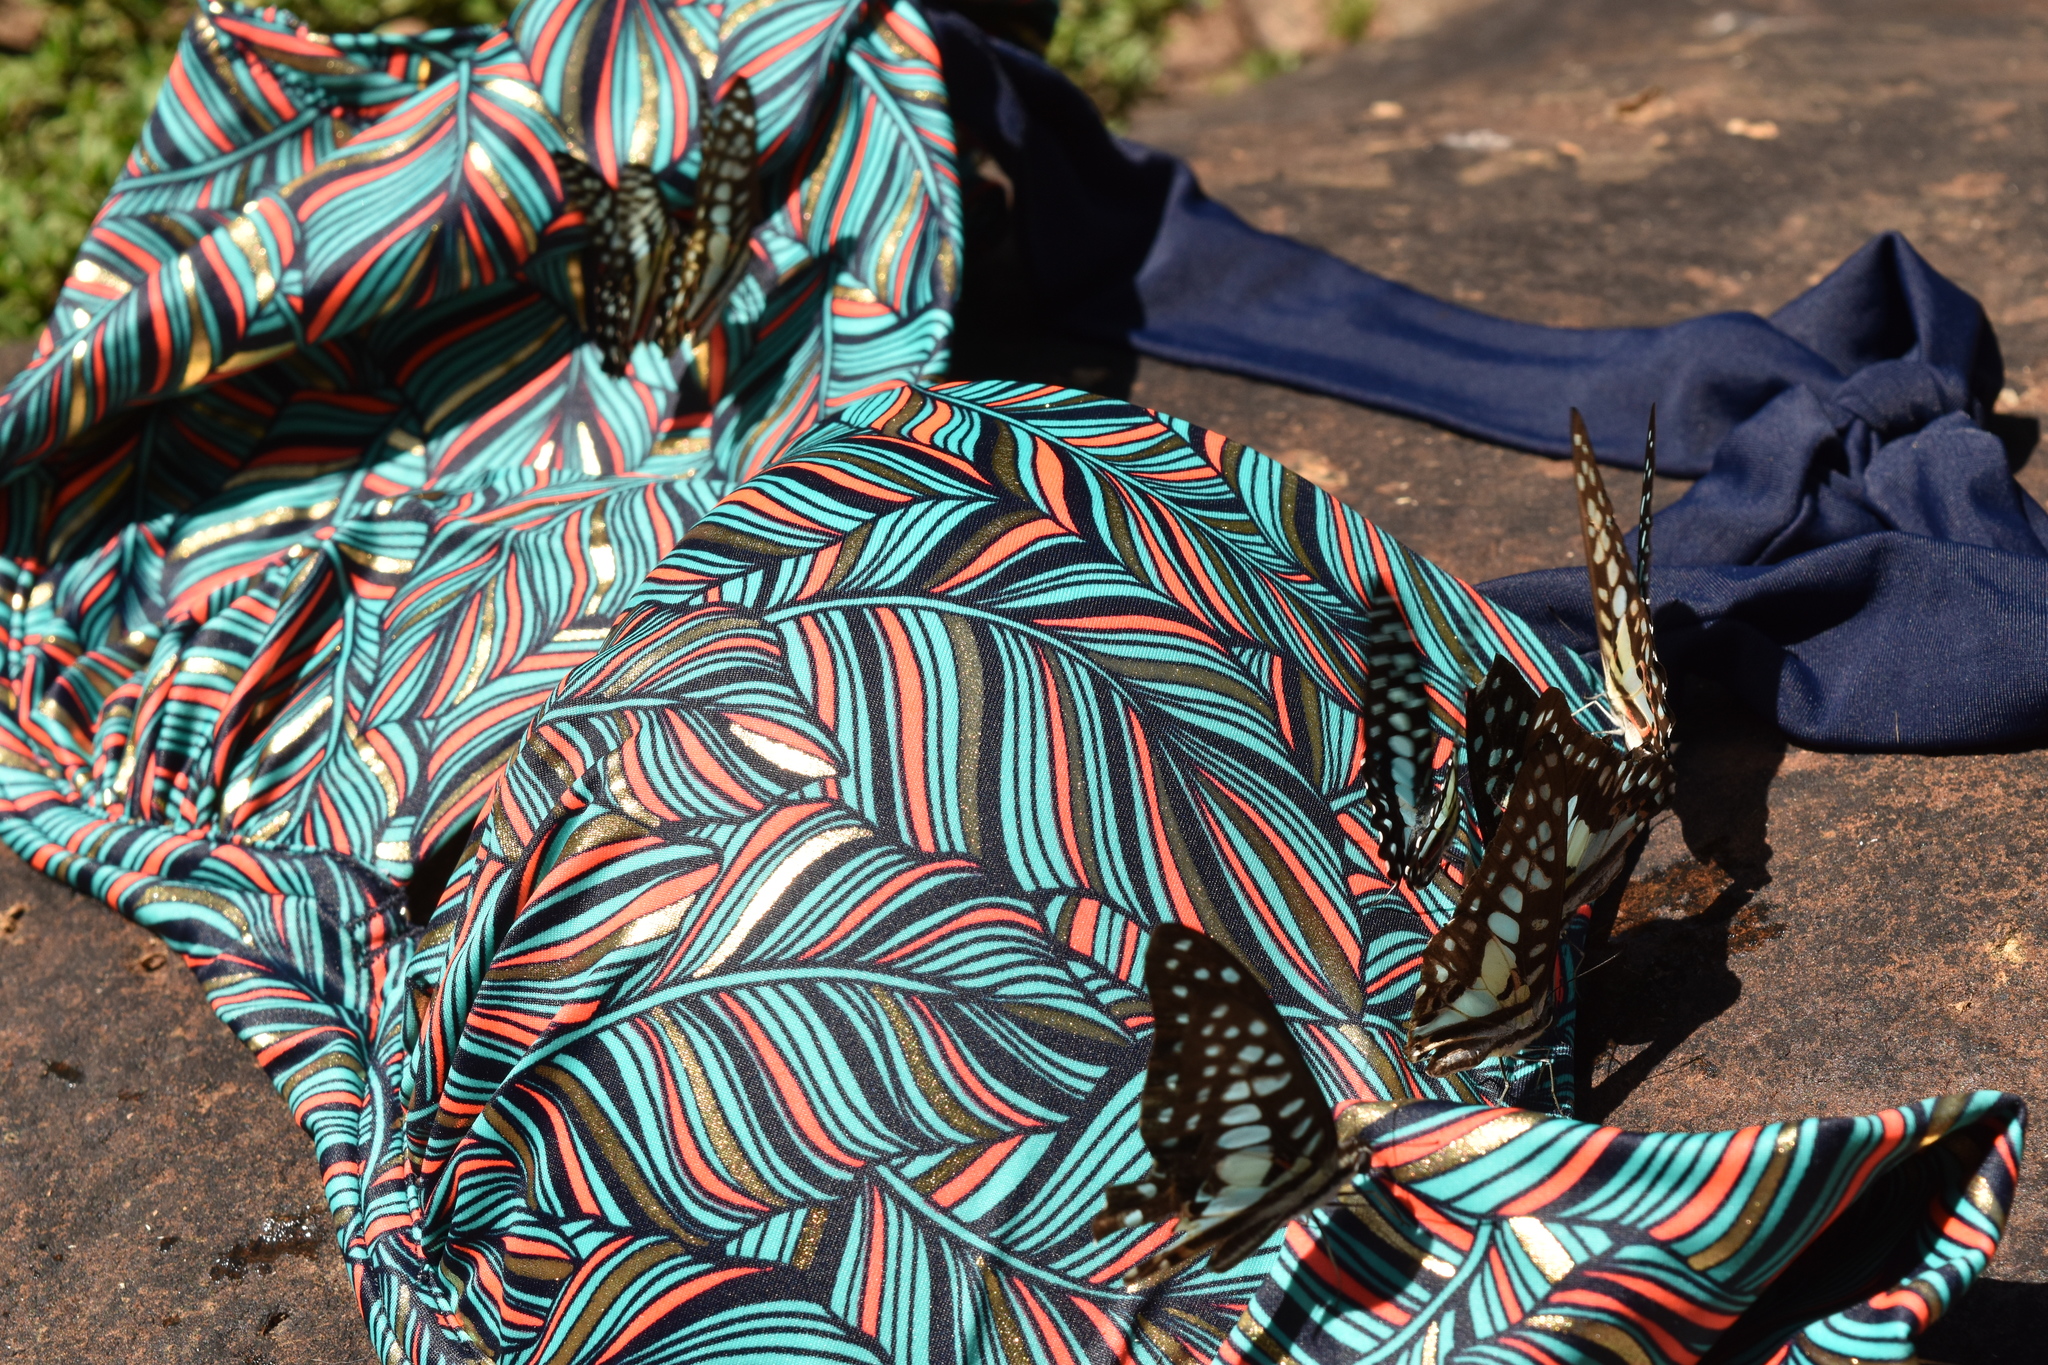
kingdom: Animalia
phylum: Arthropoda
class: Insecta
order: Lepidoptera
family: Papilionidae
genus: Graphium
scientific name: Graphium doson
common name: Common jay
